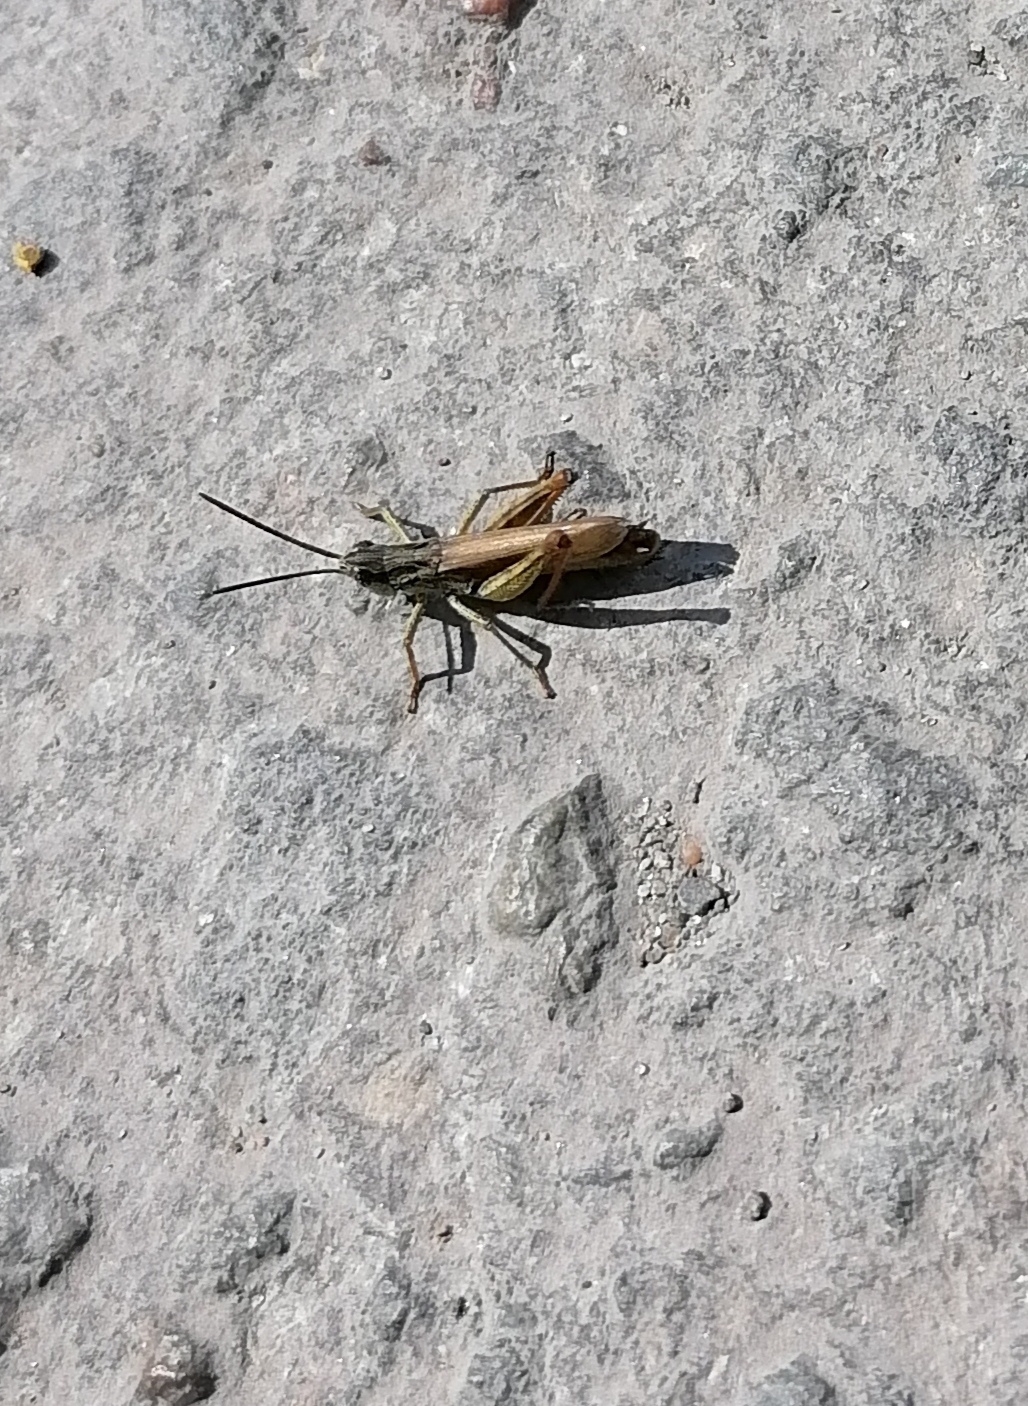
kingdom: Animalia
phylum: Arthropoda
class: Insecta
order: Orthoptera
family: Acrididae
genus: Chorthippus
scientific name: Chorthippus apricarius
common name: Upland field grasshopper
